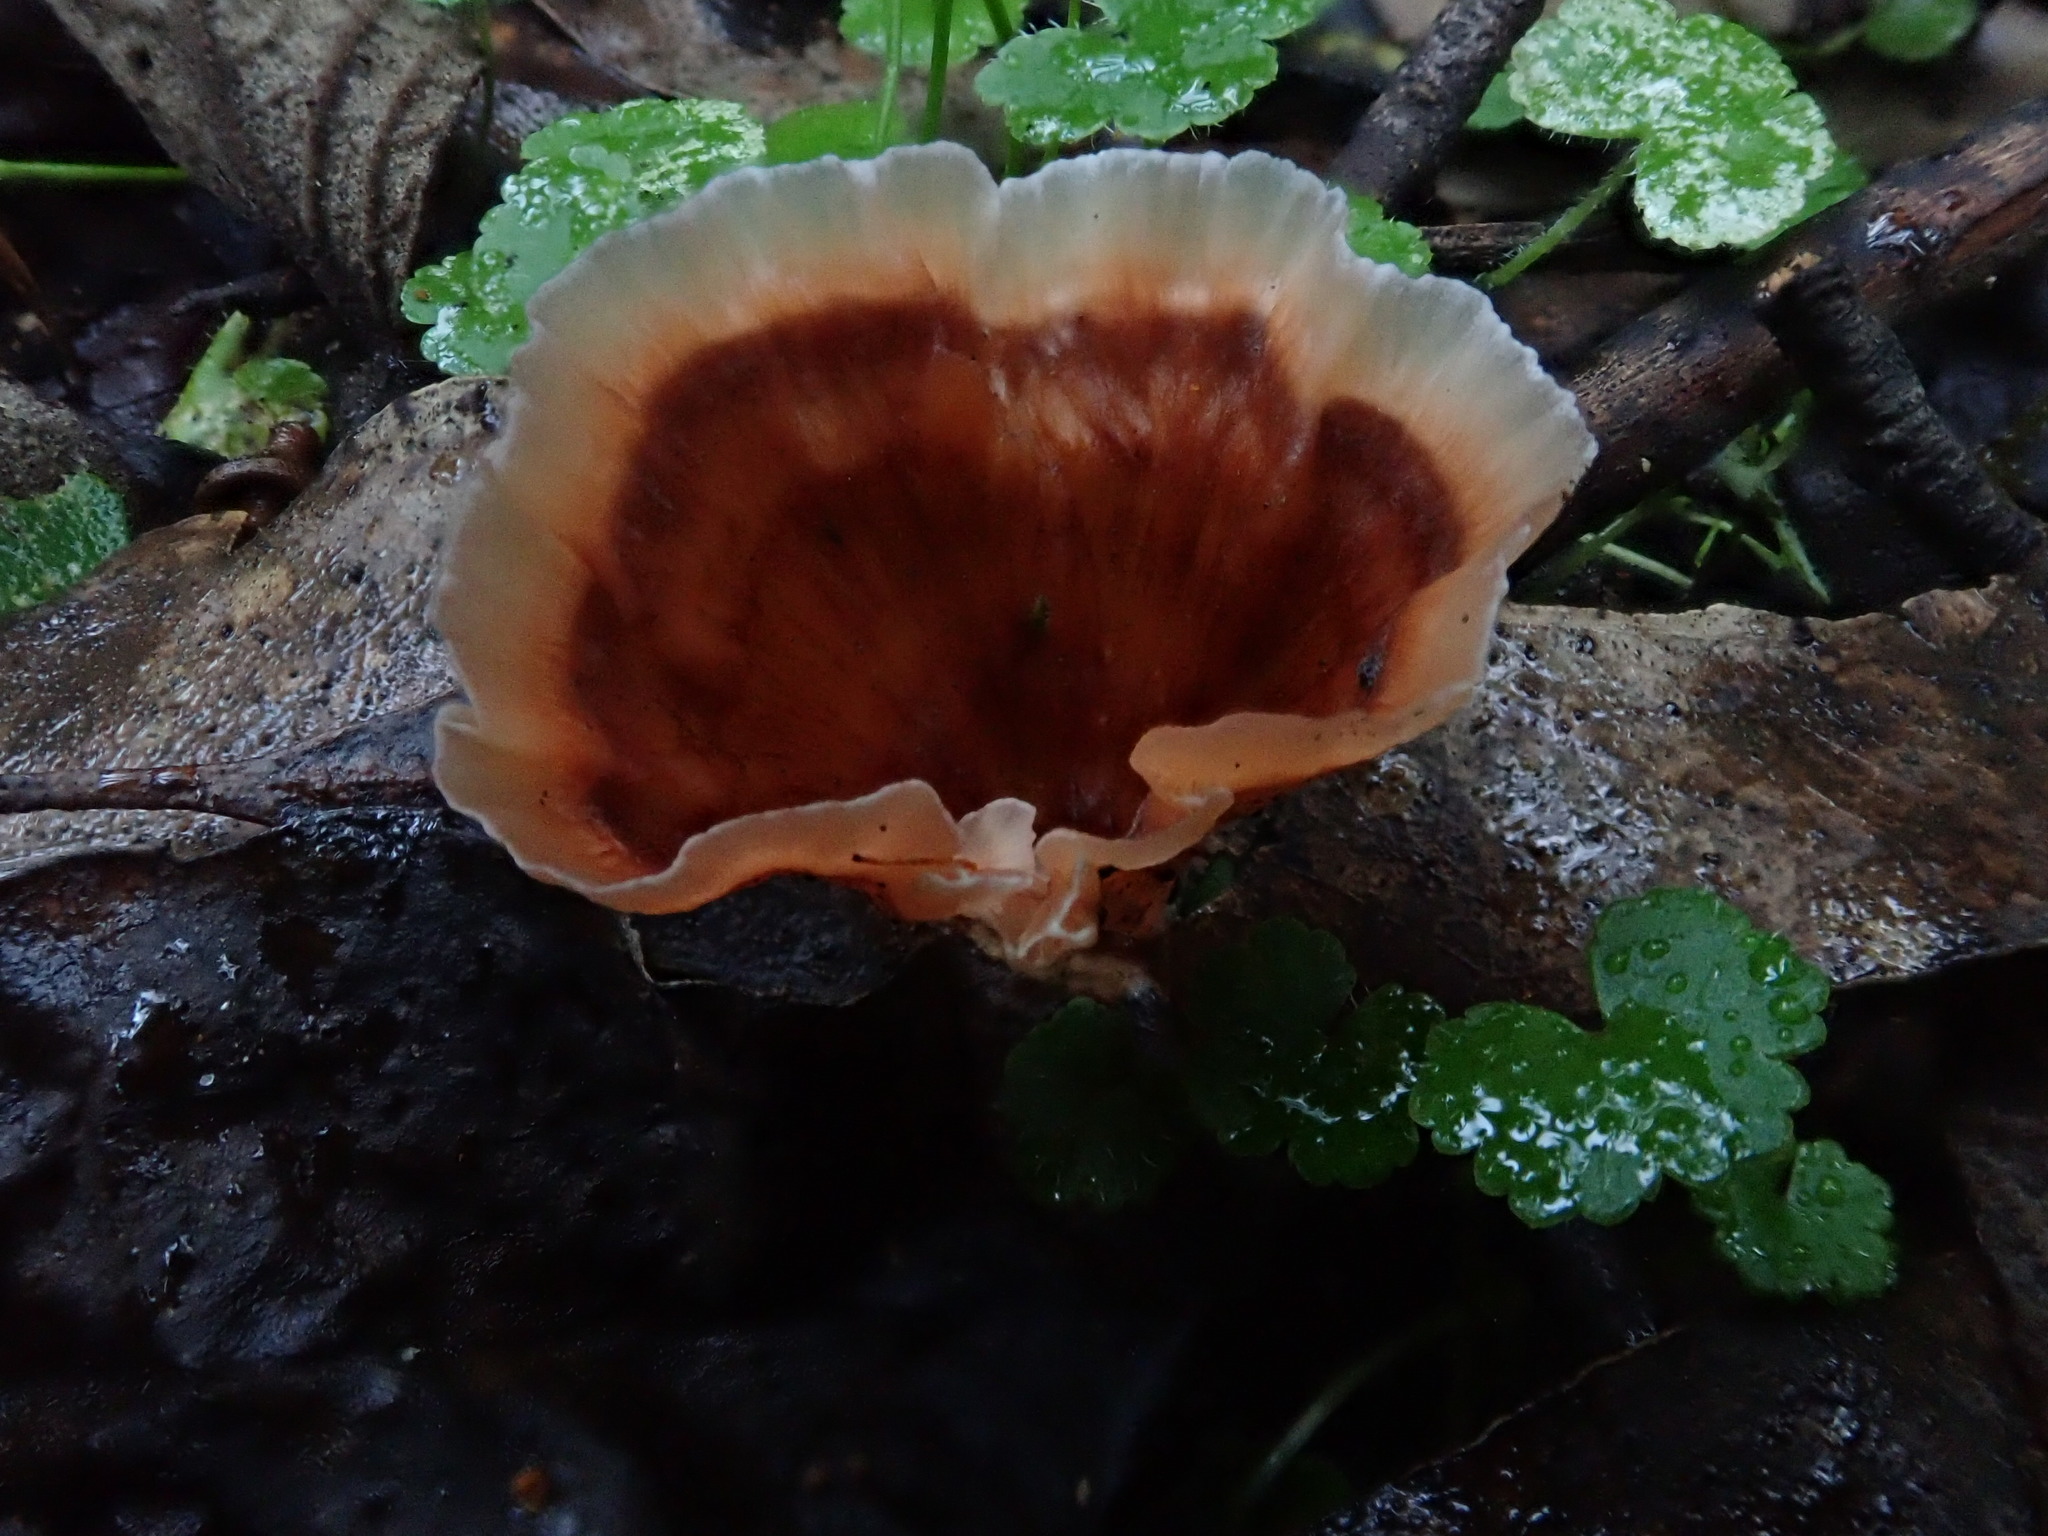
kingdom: Fungi
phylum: Basidiomycota
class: Agaricomycetes
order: Polyporales
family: Podoscyphaceae
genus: Podoscypha
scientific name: Podoscypha petalodes
